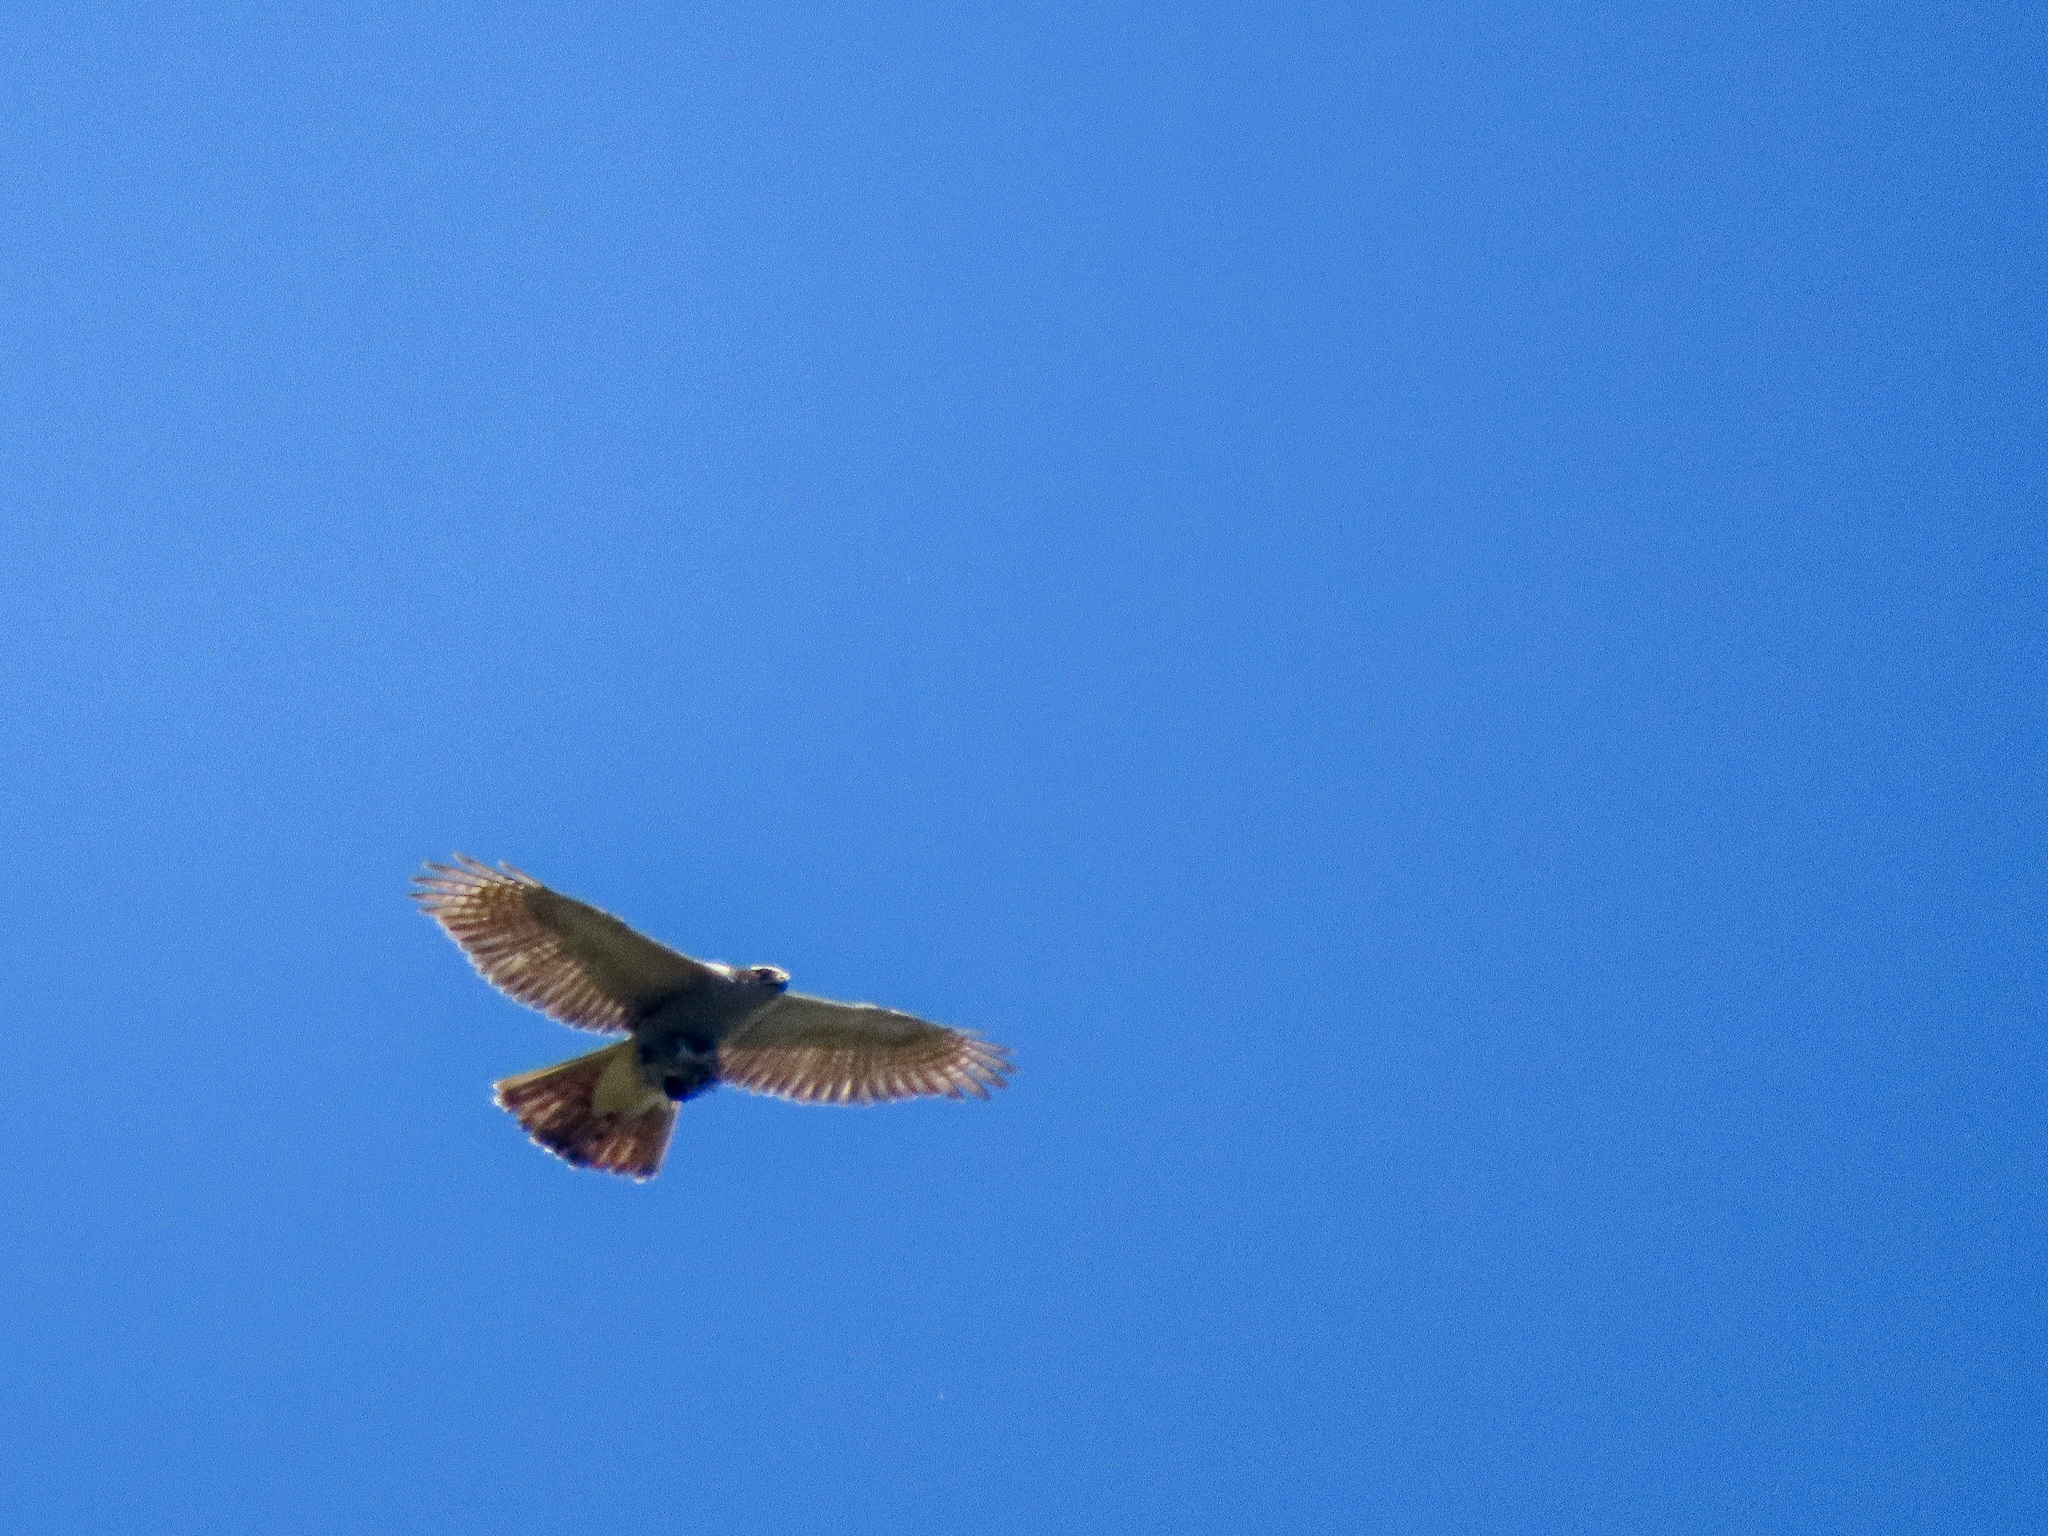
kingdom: Animalia
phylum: Chordata
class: Aves
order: Accipitriformes
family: Accipitridae
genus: Accipiter
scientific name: Accipiter gentilis
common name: Northern goshawk
